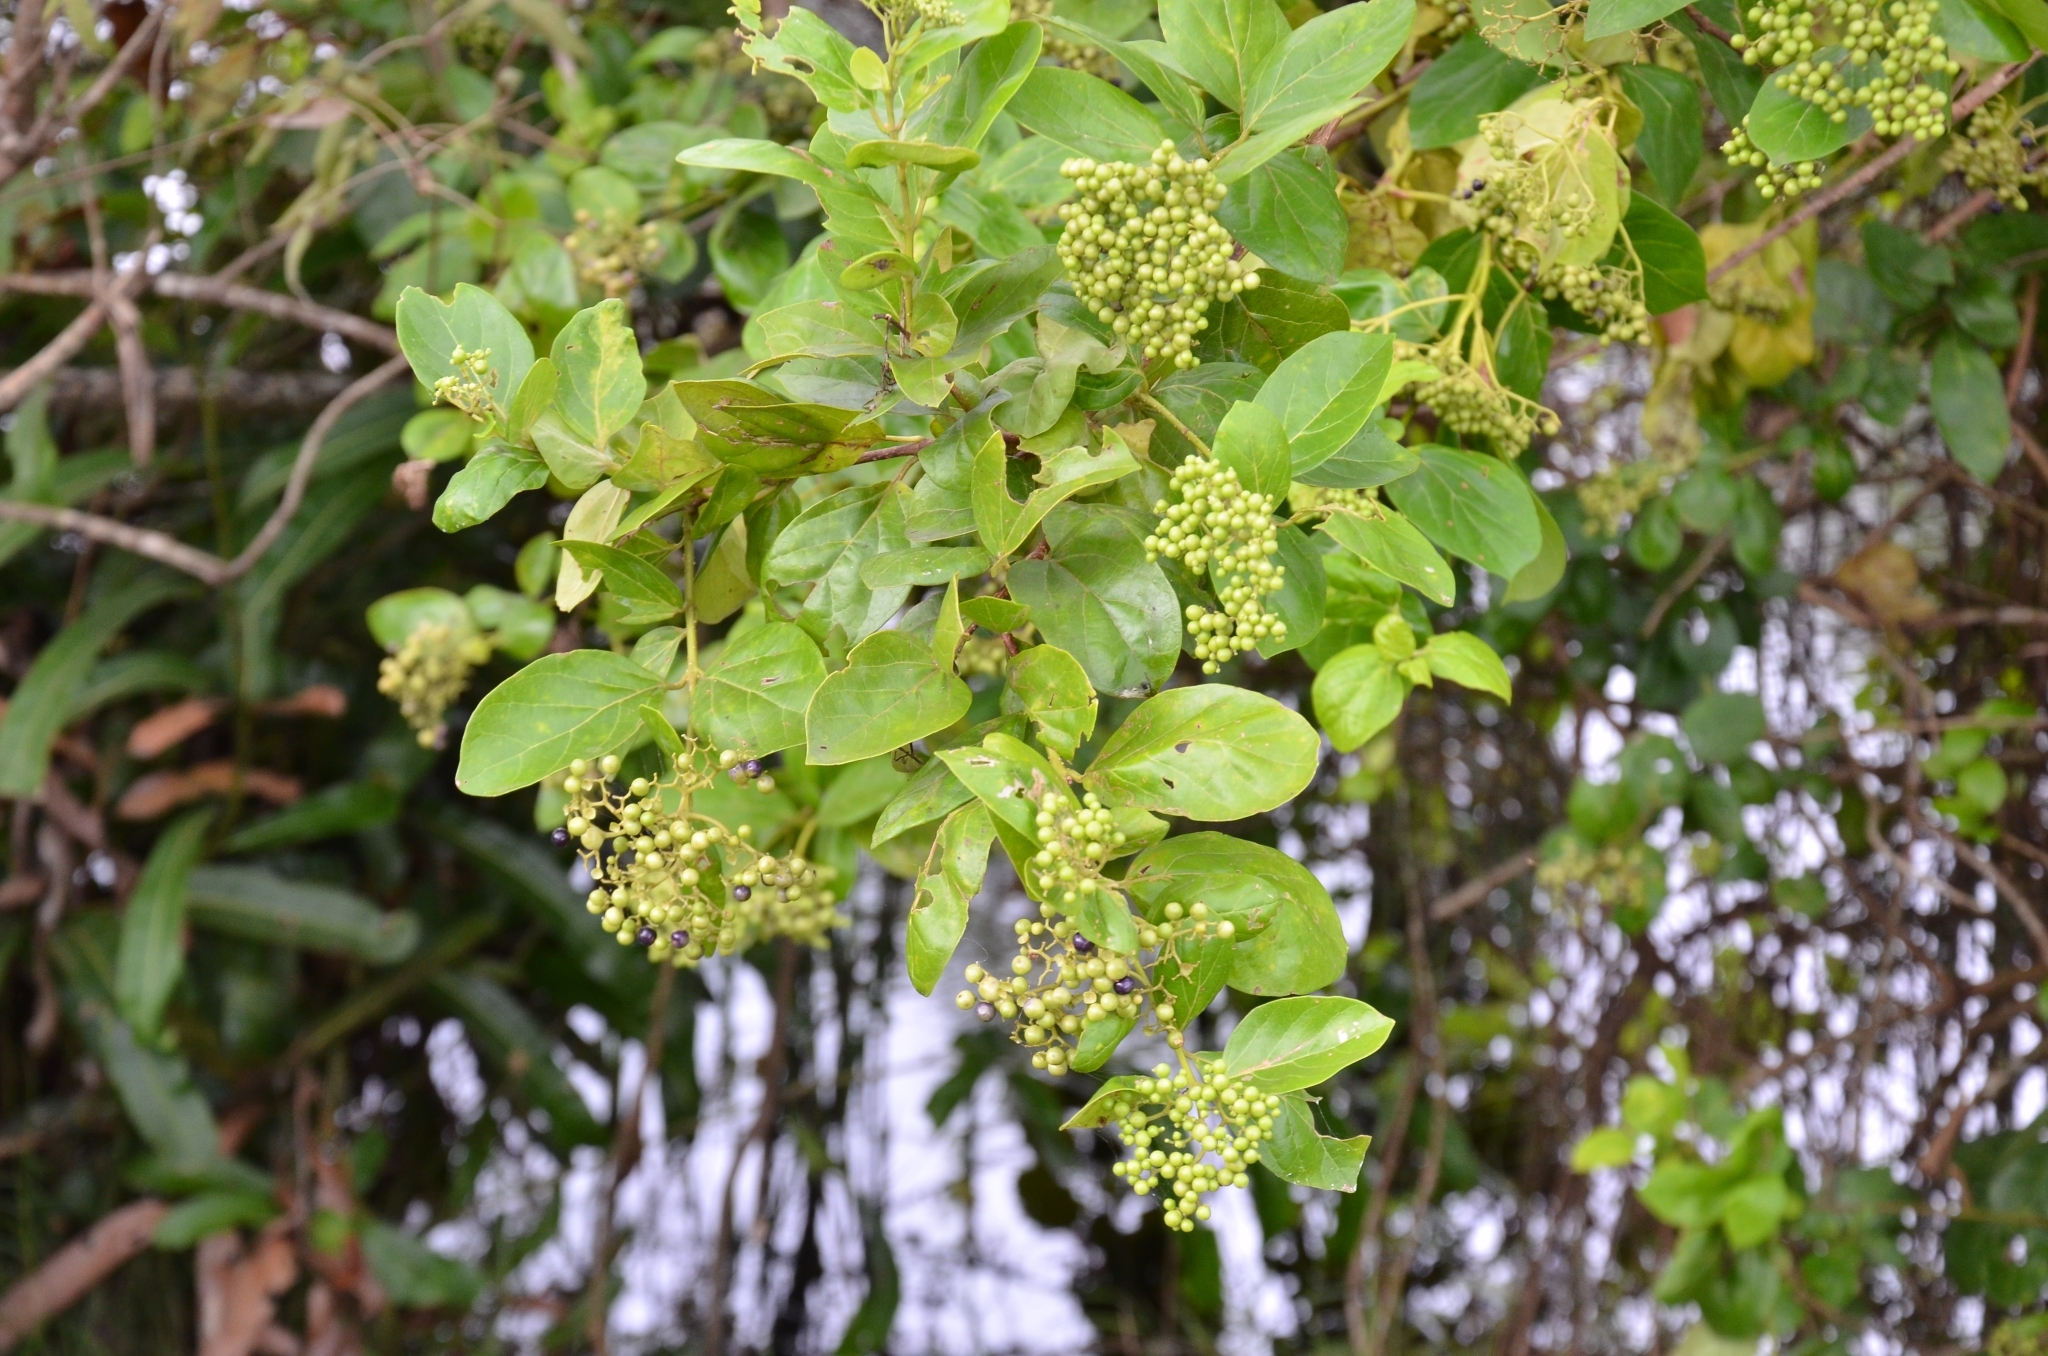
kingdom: Plantae
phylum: Tracheophyta
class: Magnoliopsida
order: Lamiales
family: Lamiaceae
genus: Premna
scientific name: Premna serratifolia
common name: Bastard guelder
